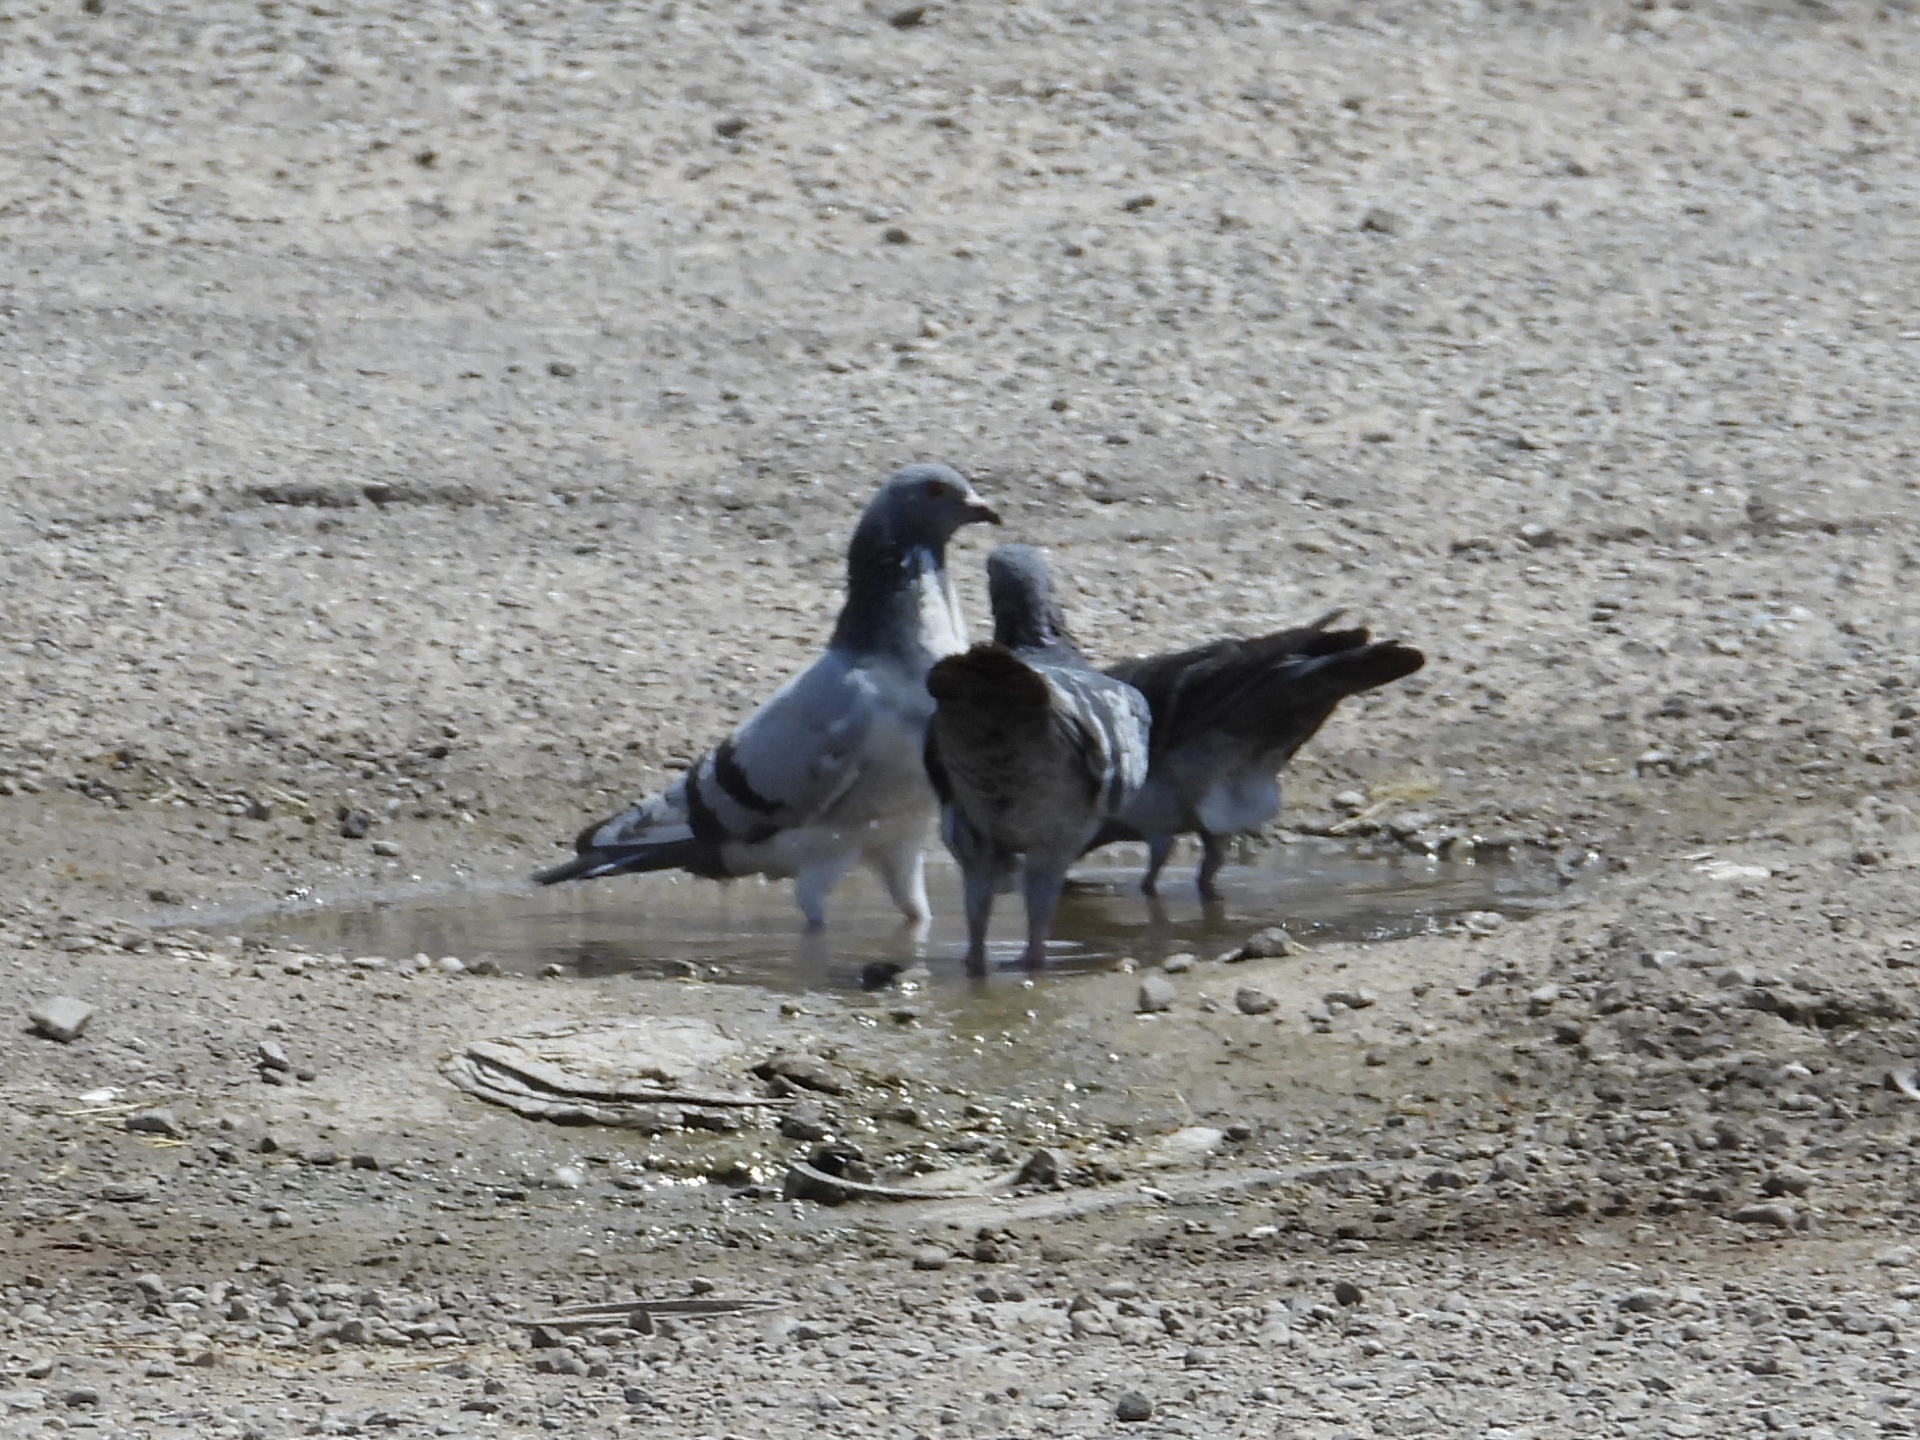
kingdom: Animalia
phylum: Chordata
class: Aves
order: Columbiformes
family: Columbidae
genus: Columba
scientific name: Columba livia
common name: Rock pigeon
